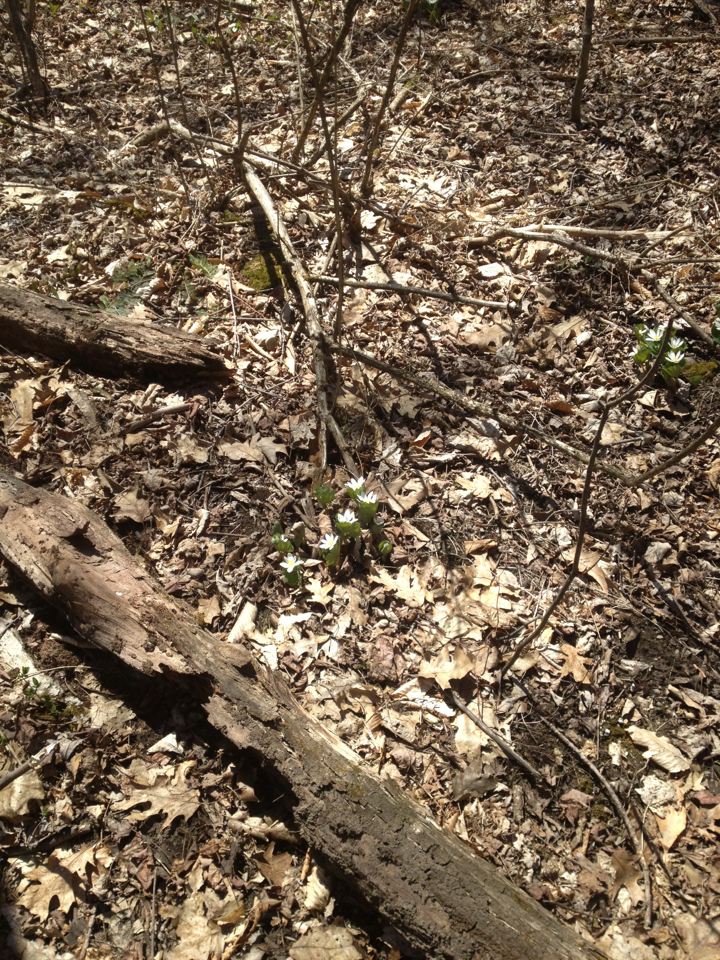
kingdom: Plantae
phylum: Tracheophyta
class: Magnoliopsida
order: Ranunculales
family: Papaveraceae
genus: Sanguinaria
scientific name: Sanguinaria canadensis
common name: Bloodroot
